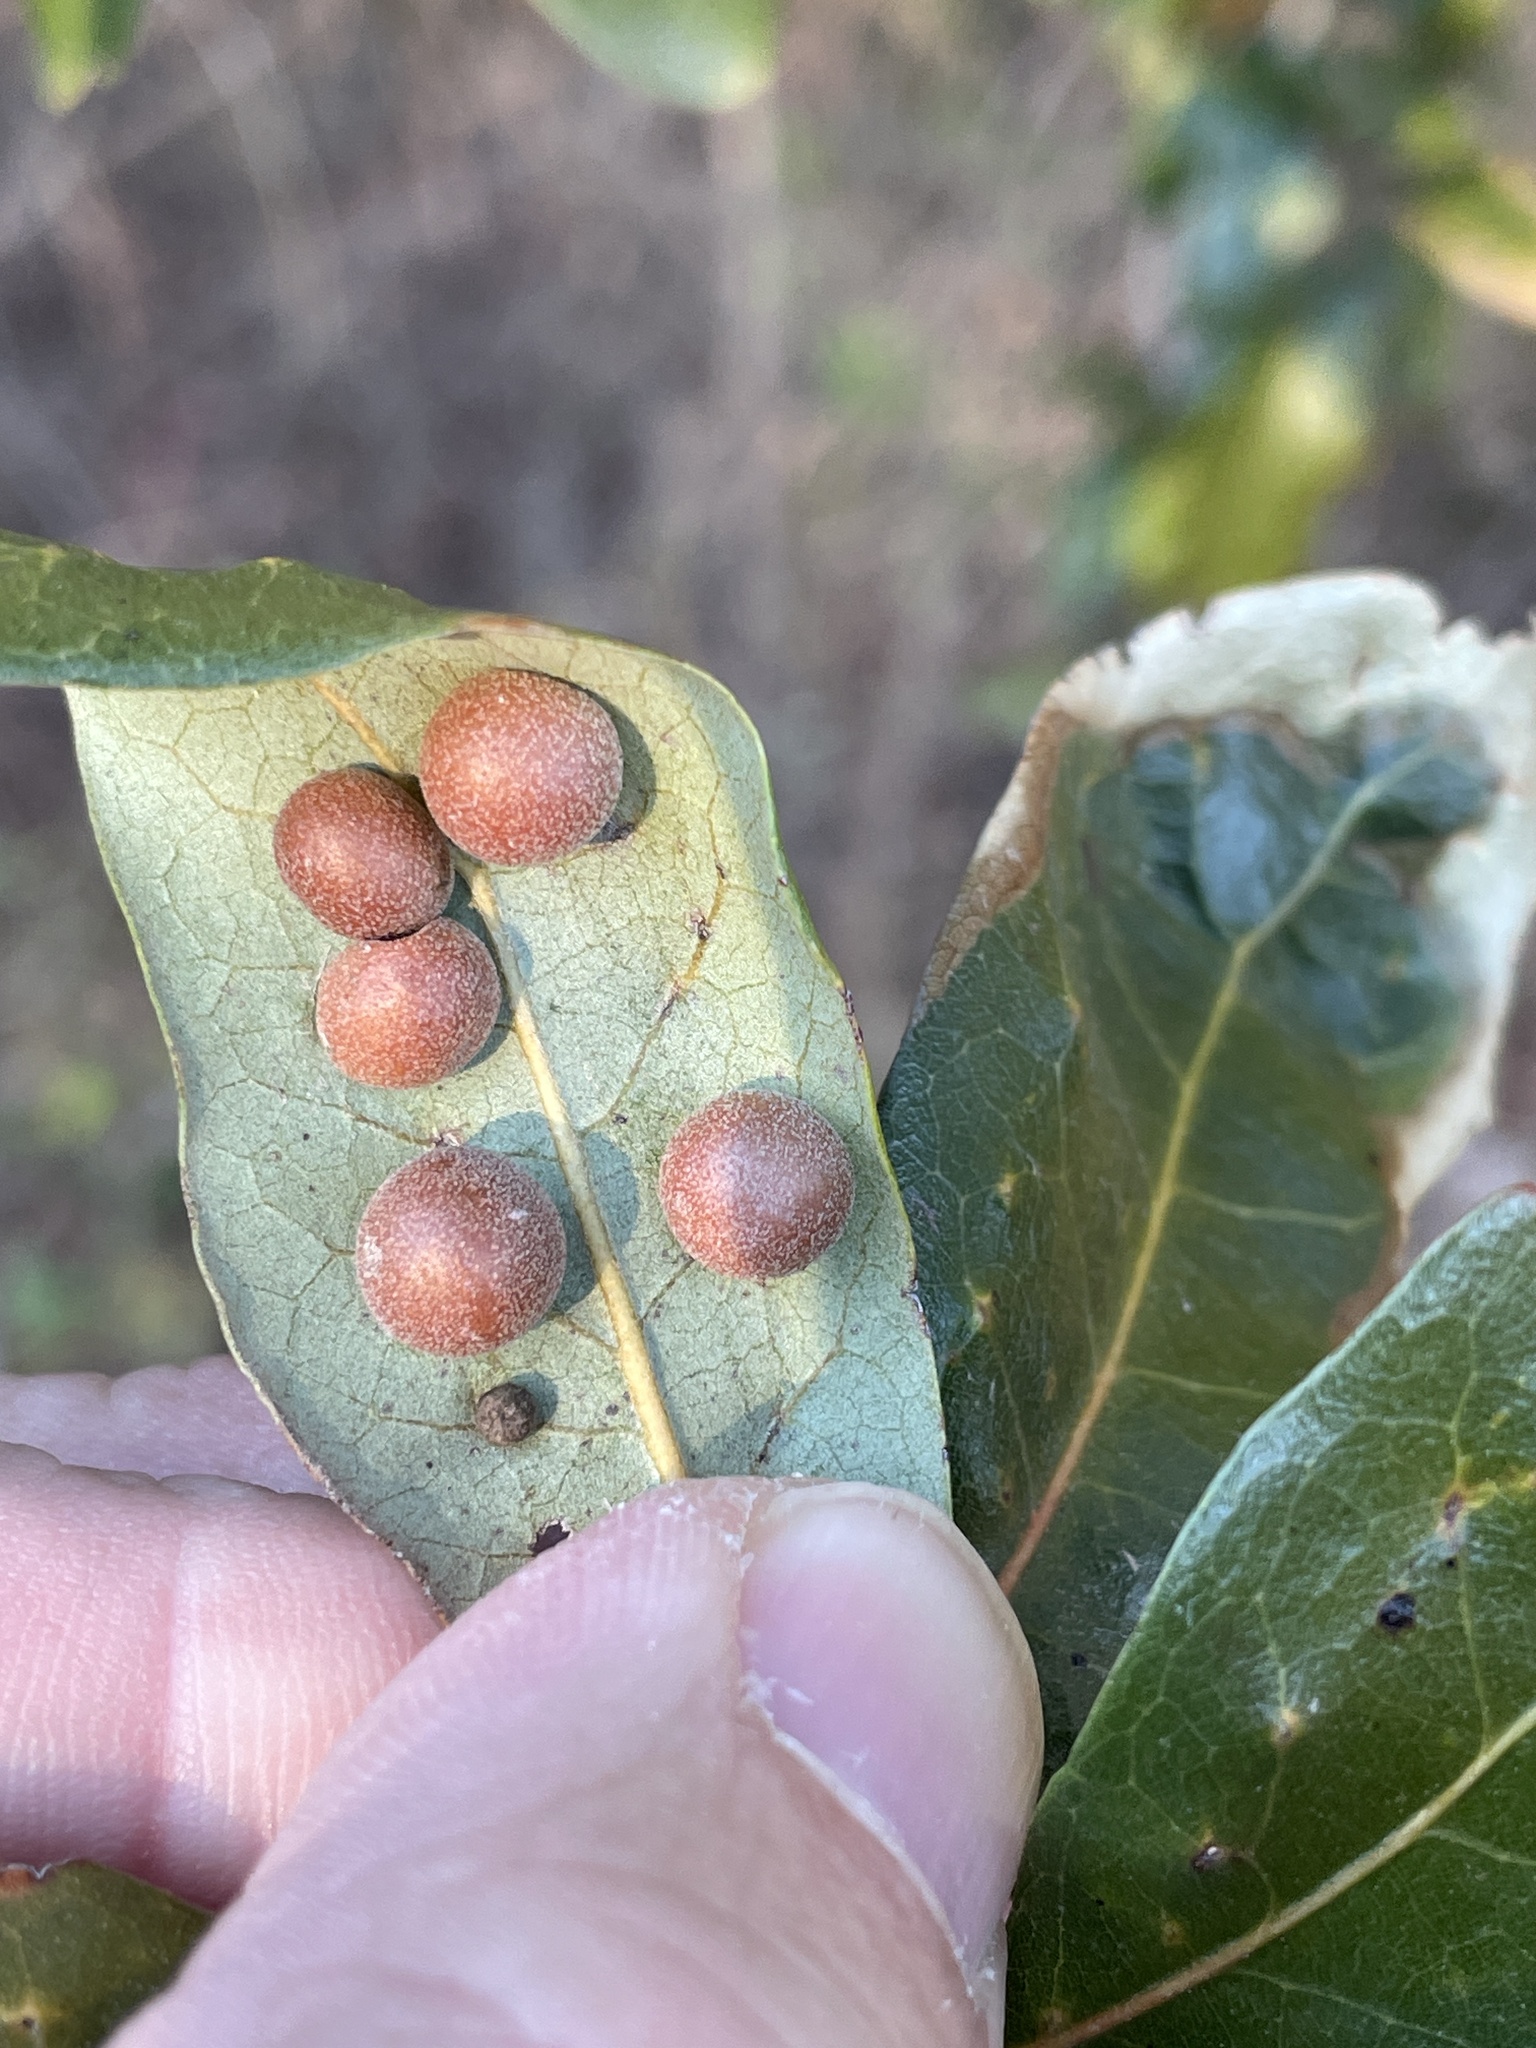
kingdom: Animalia
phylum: Arthropoda
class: Insecta
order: Hymenoptera
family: Cynipidae
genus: Belonocnema
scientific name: Belonocnema kinseyi
